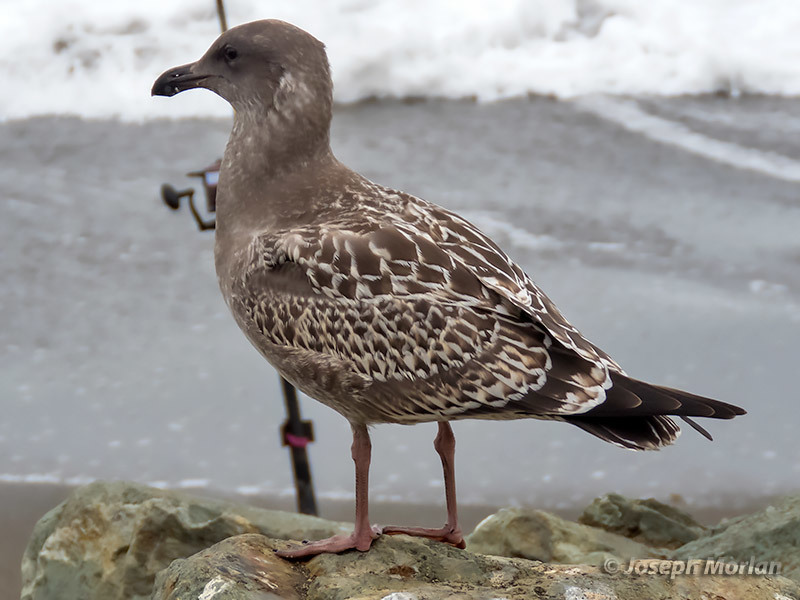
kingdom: Animalia
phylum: Chordata
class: Aves
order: Charadriiformes
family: Laridae
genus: Larus
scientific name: Larus occidentalis
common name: Western gull
